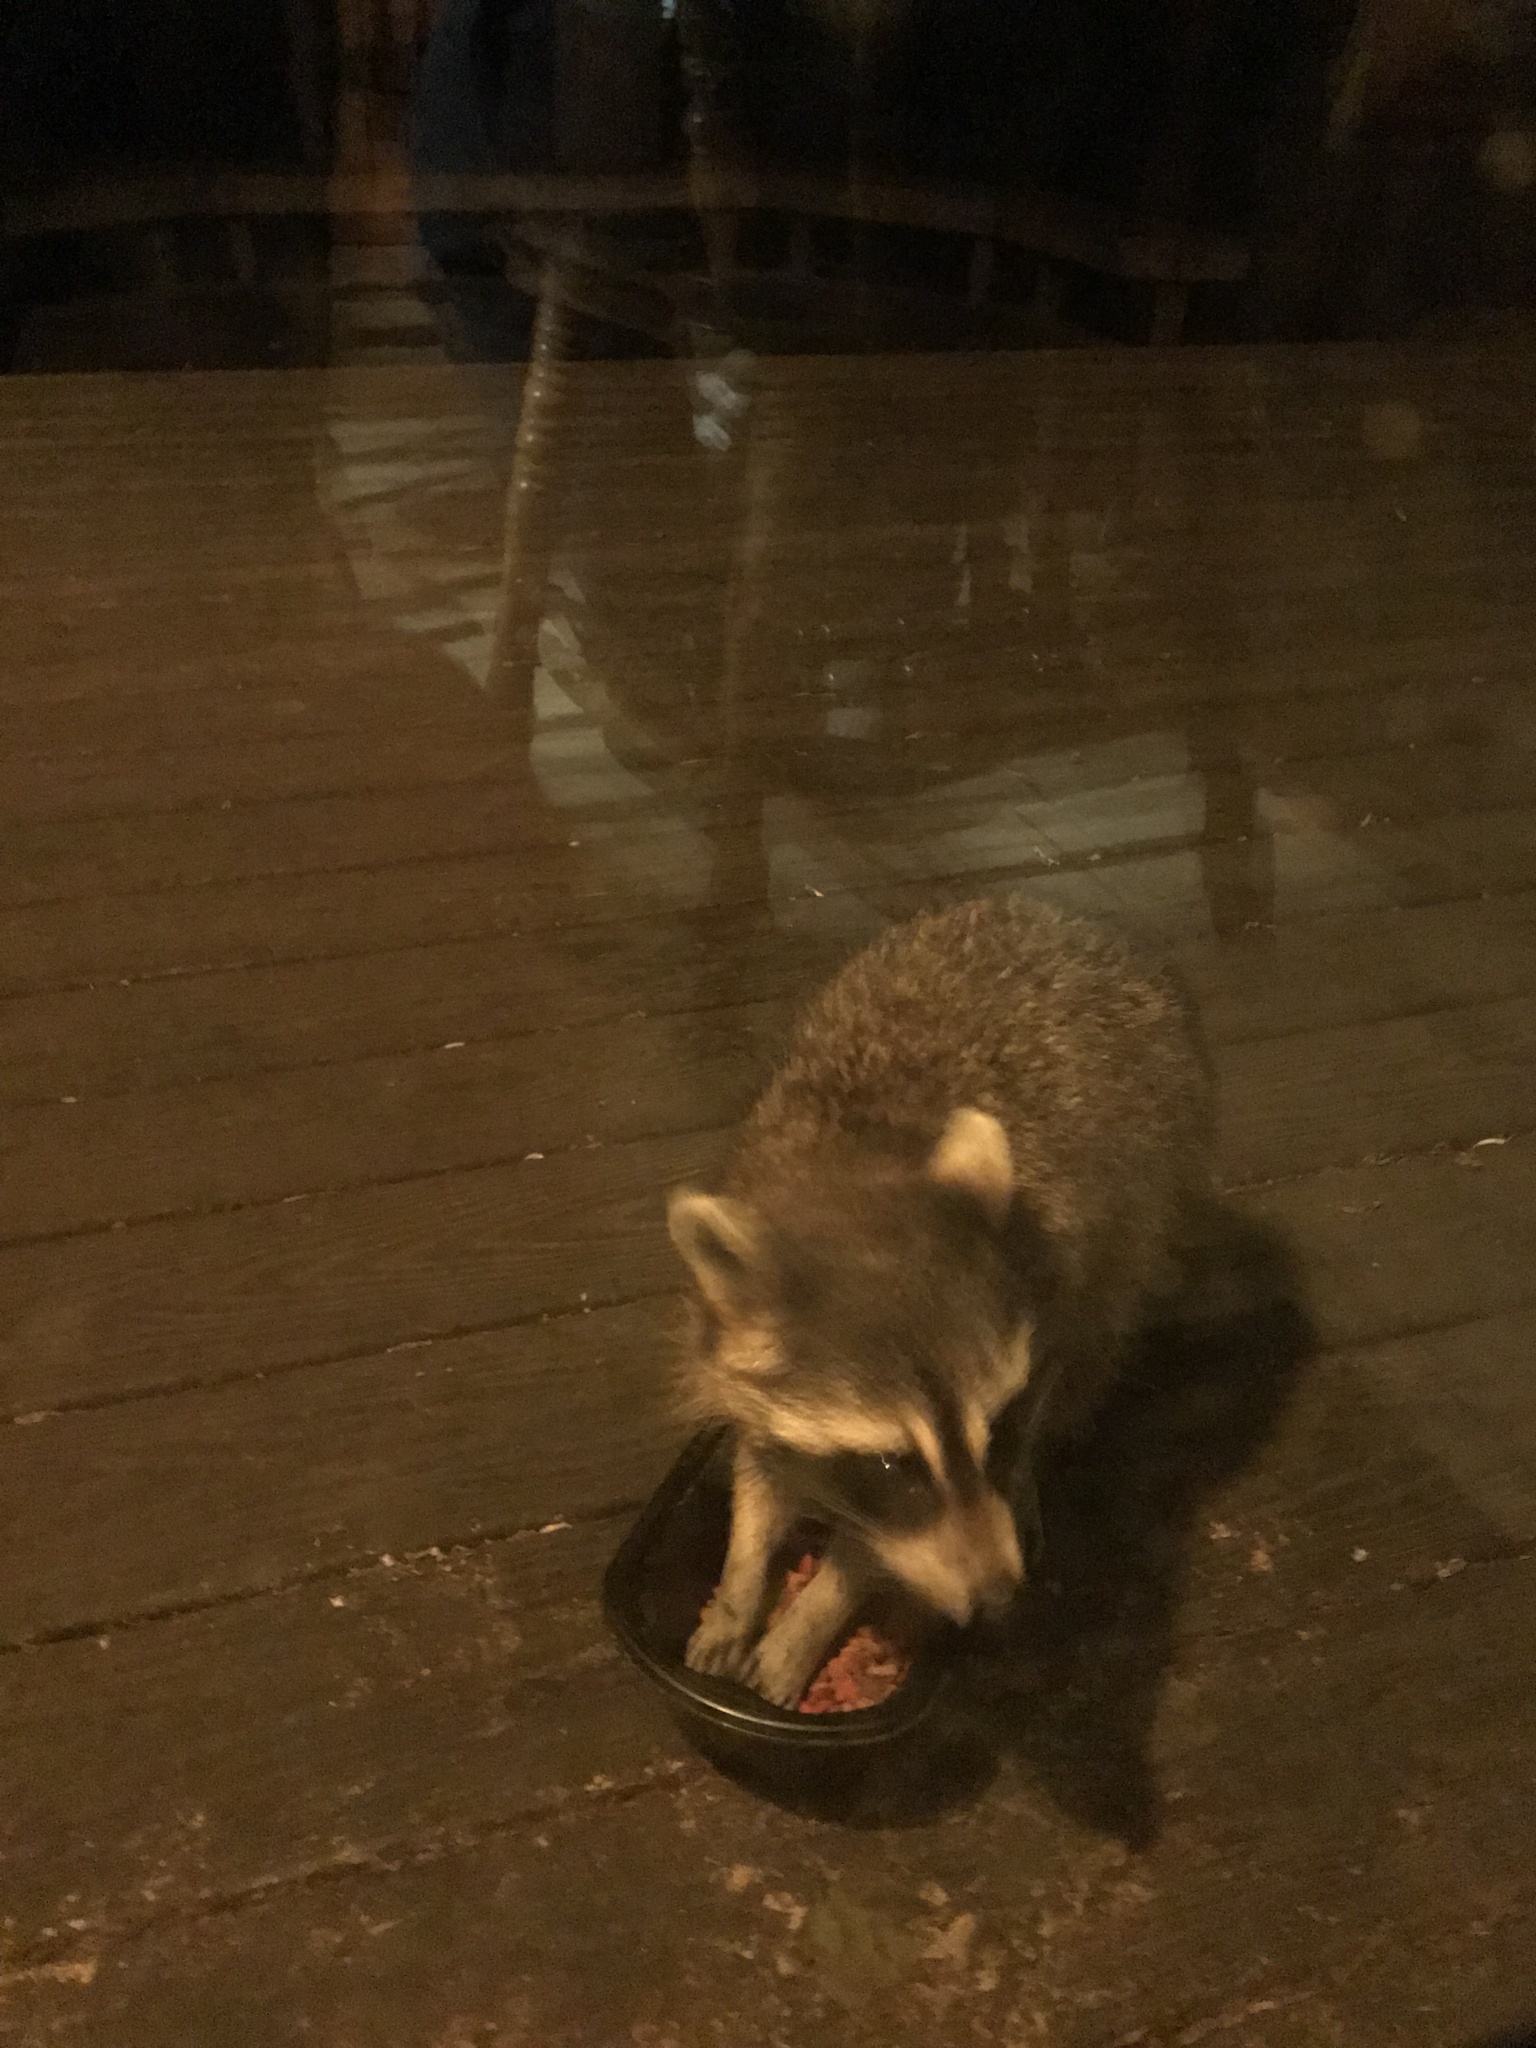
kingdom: Animalia
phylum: Chordata
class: Mammalia
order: Carnivora
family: Procyonidae
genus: Procyon
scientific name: Procyon lotor
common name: Raccoon
